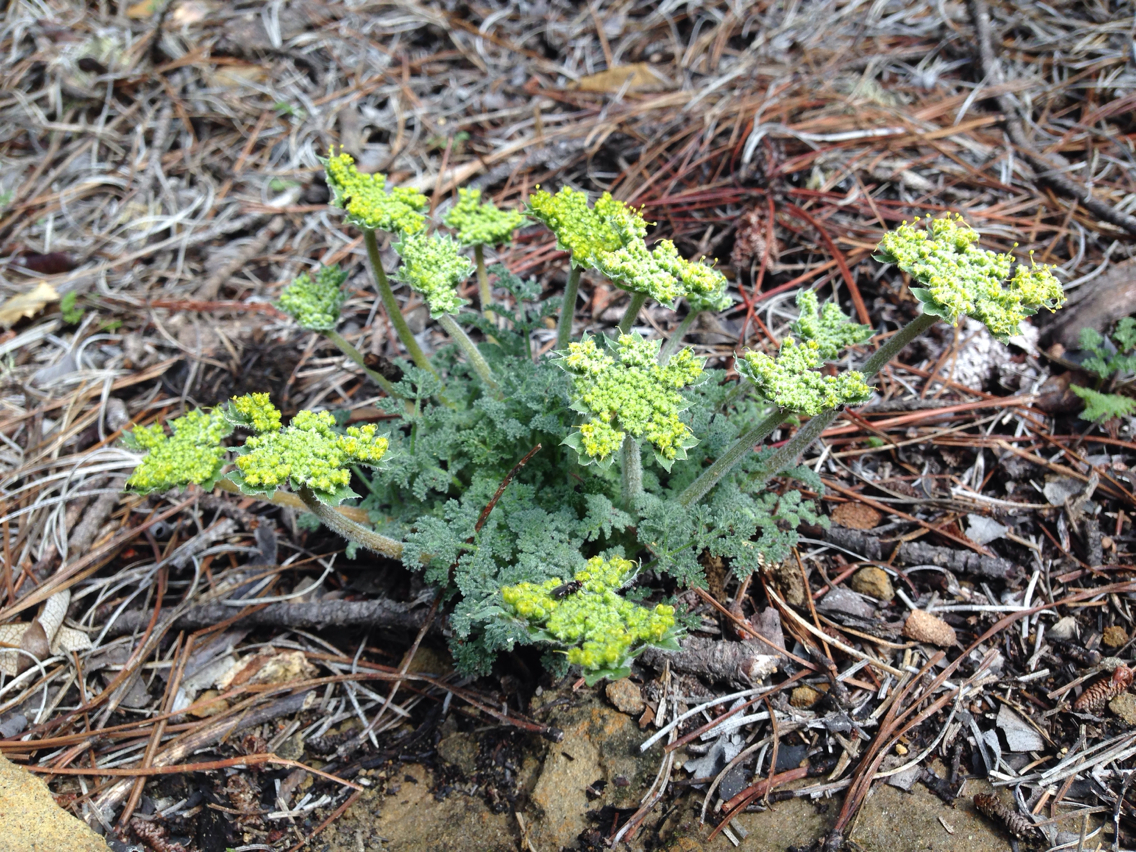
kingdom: Plantae
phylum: Tracheophyta
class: Magnoliopsida
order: Apiales
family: Apiaceae
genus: Lomatium
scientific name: Lomatium dasycarpum
